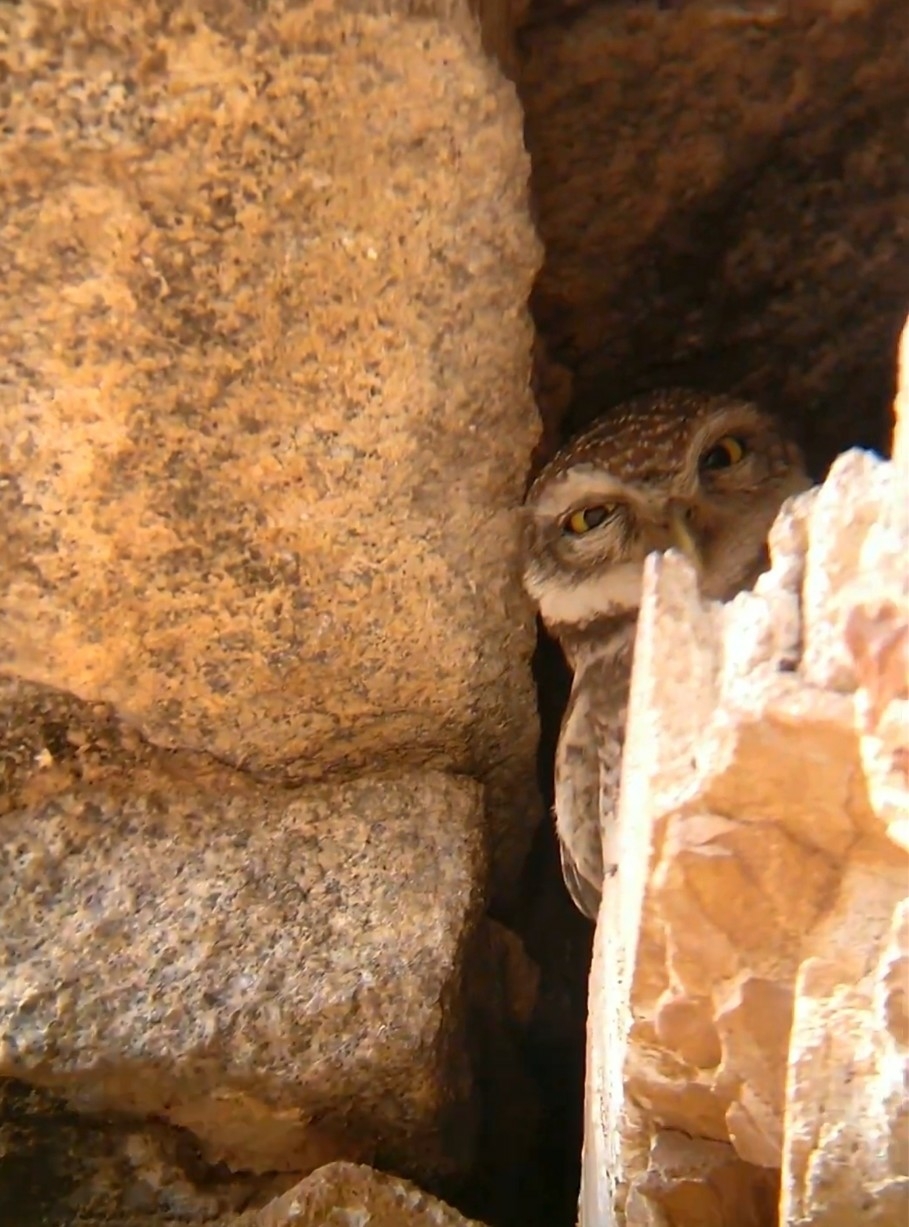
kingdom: Animalia
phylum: Chordata
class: Aves
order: Strigiformes
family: Strigidae
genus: Athene
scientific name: Athene brama
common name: Spotted owlet
